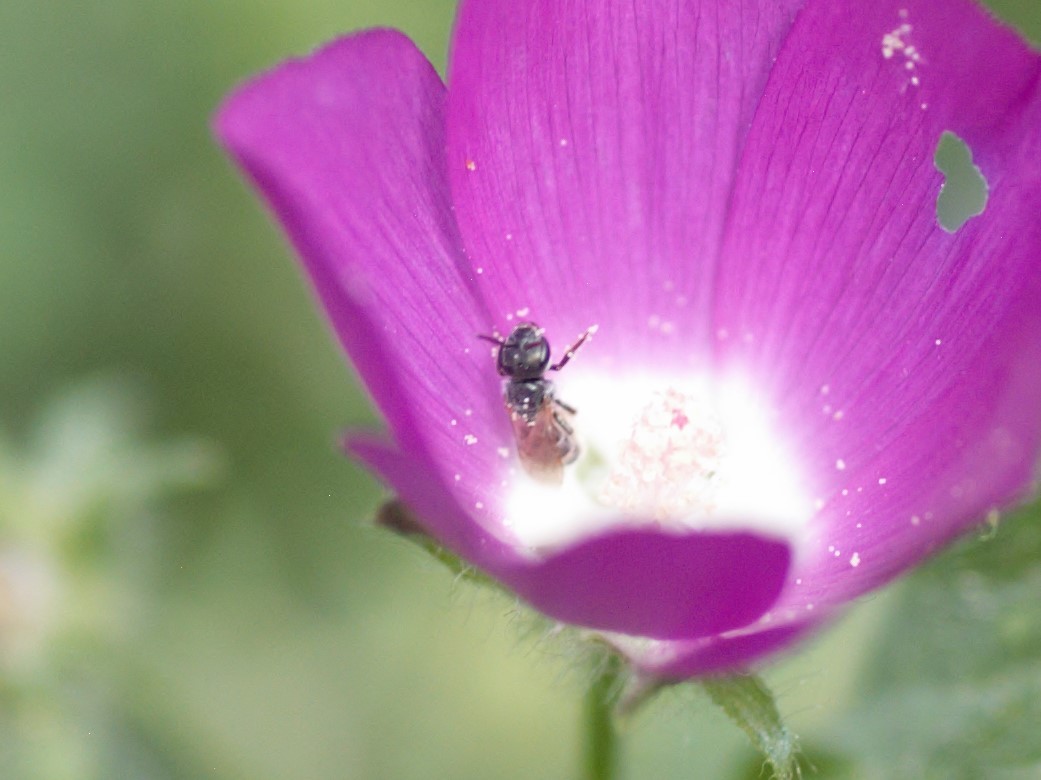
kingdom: Animalia
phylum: Arthropoda
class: Insecta
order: Hymenoptera
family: Halictidae
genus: Halictus
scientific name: Halictus tripartitus
